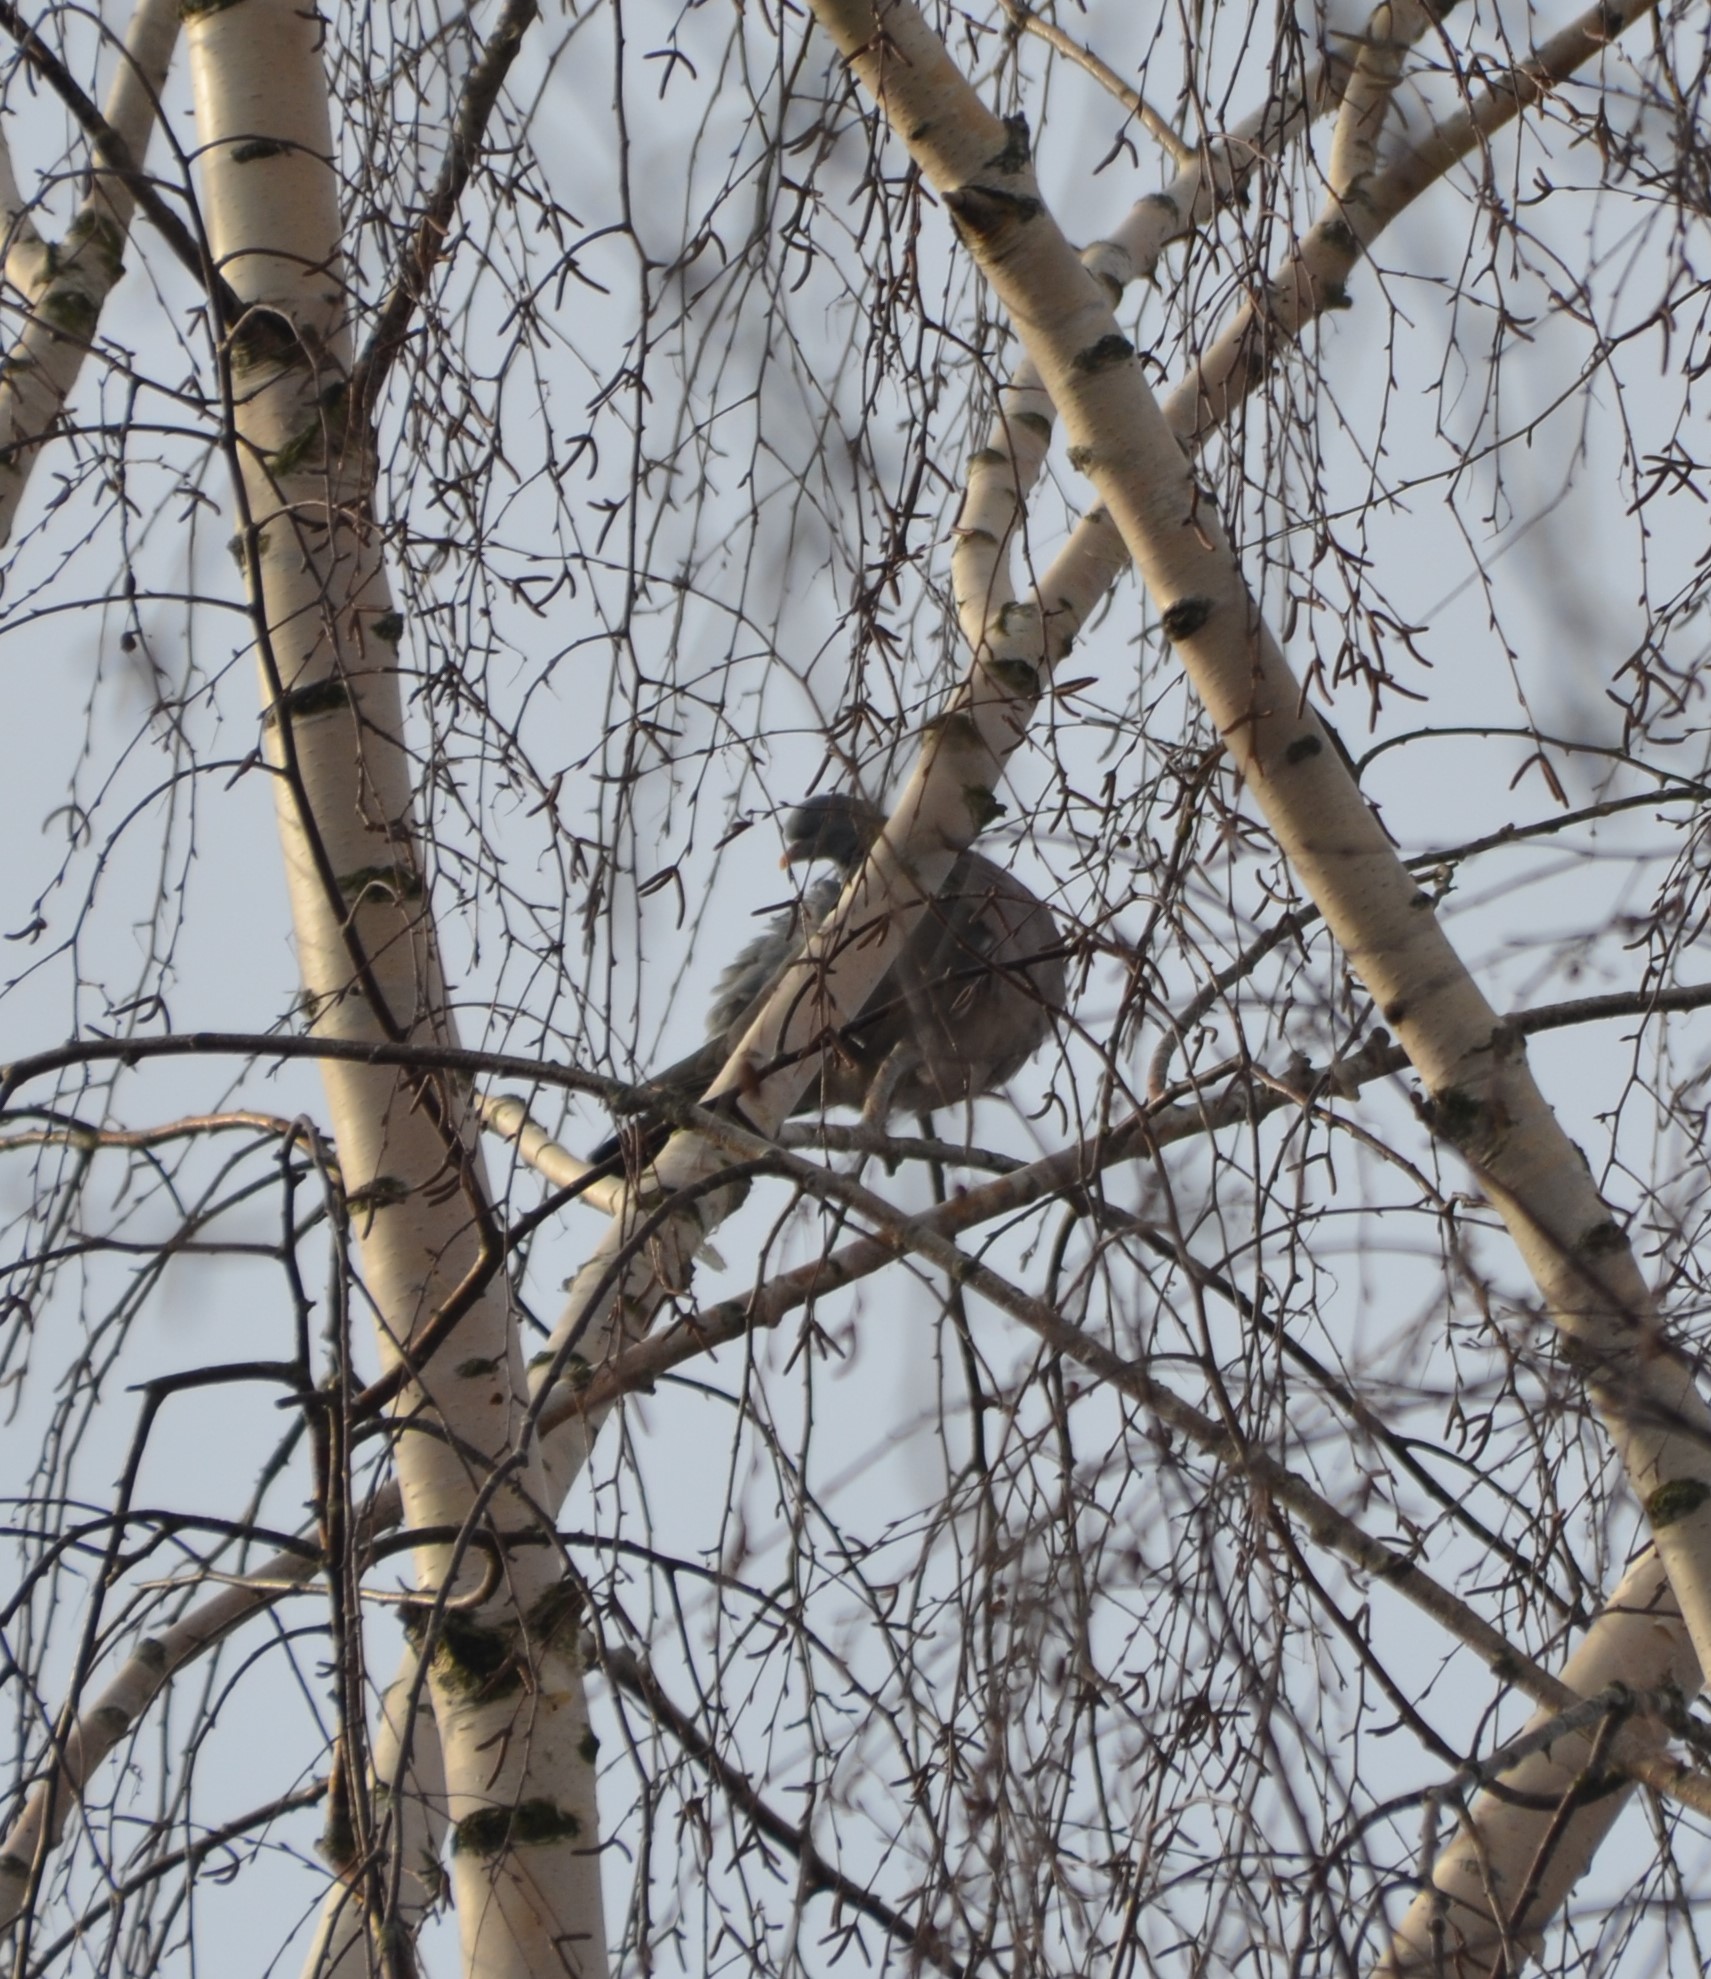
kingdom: Animalia
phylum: Chordata
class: Aves
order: Columbiformes
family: Columbidae
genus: Columba
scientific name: Columba palumbus
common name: Common wood pigeon
